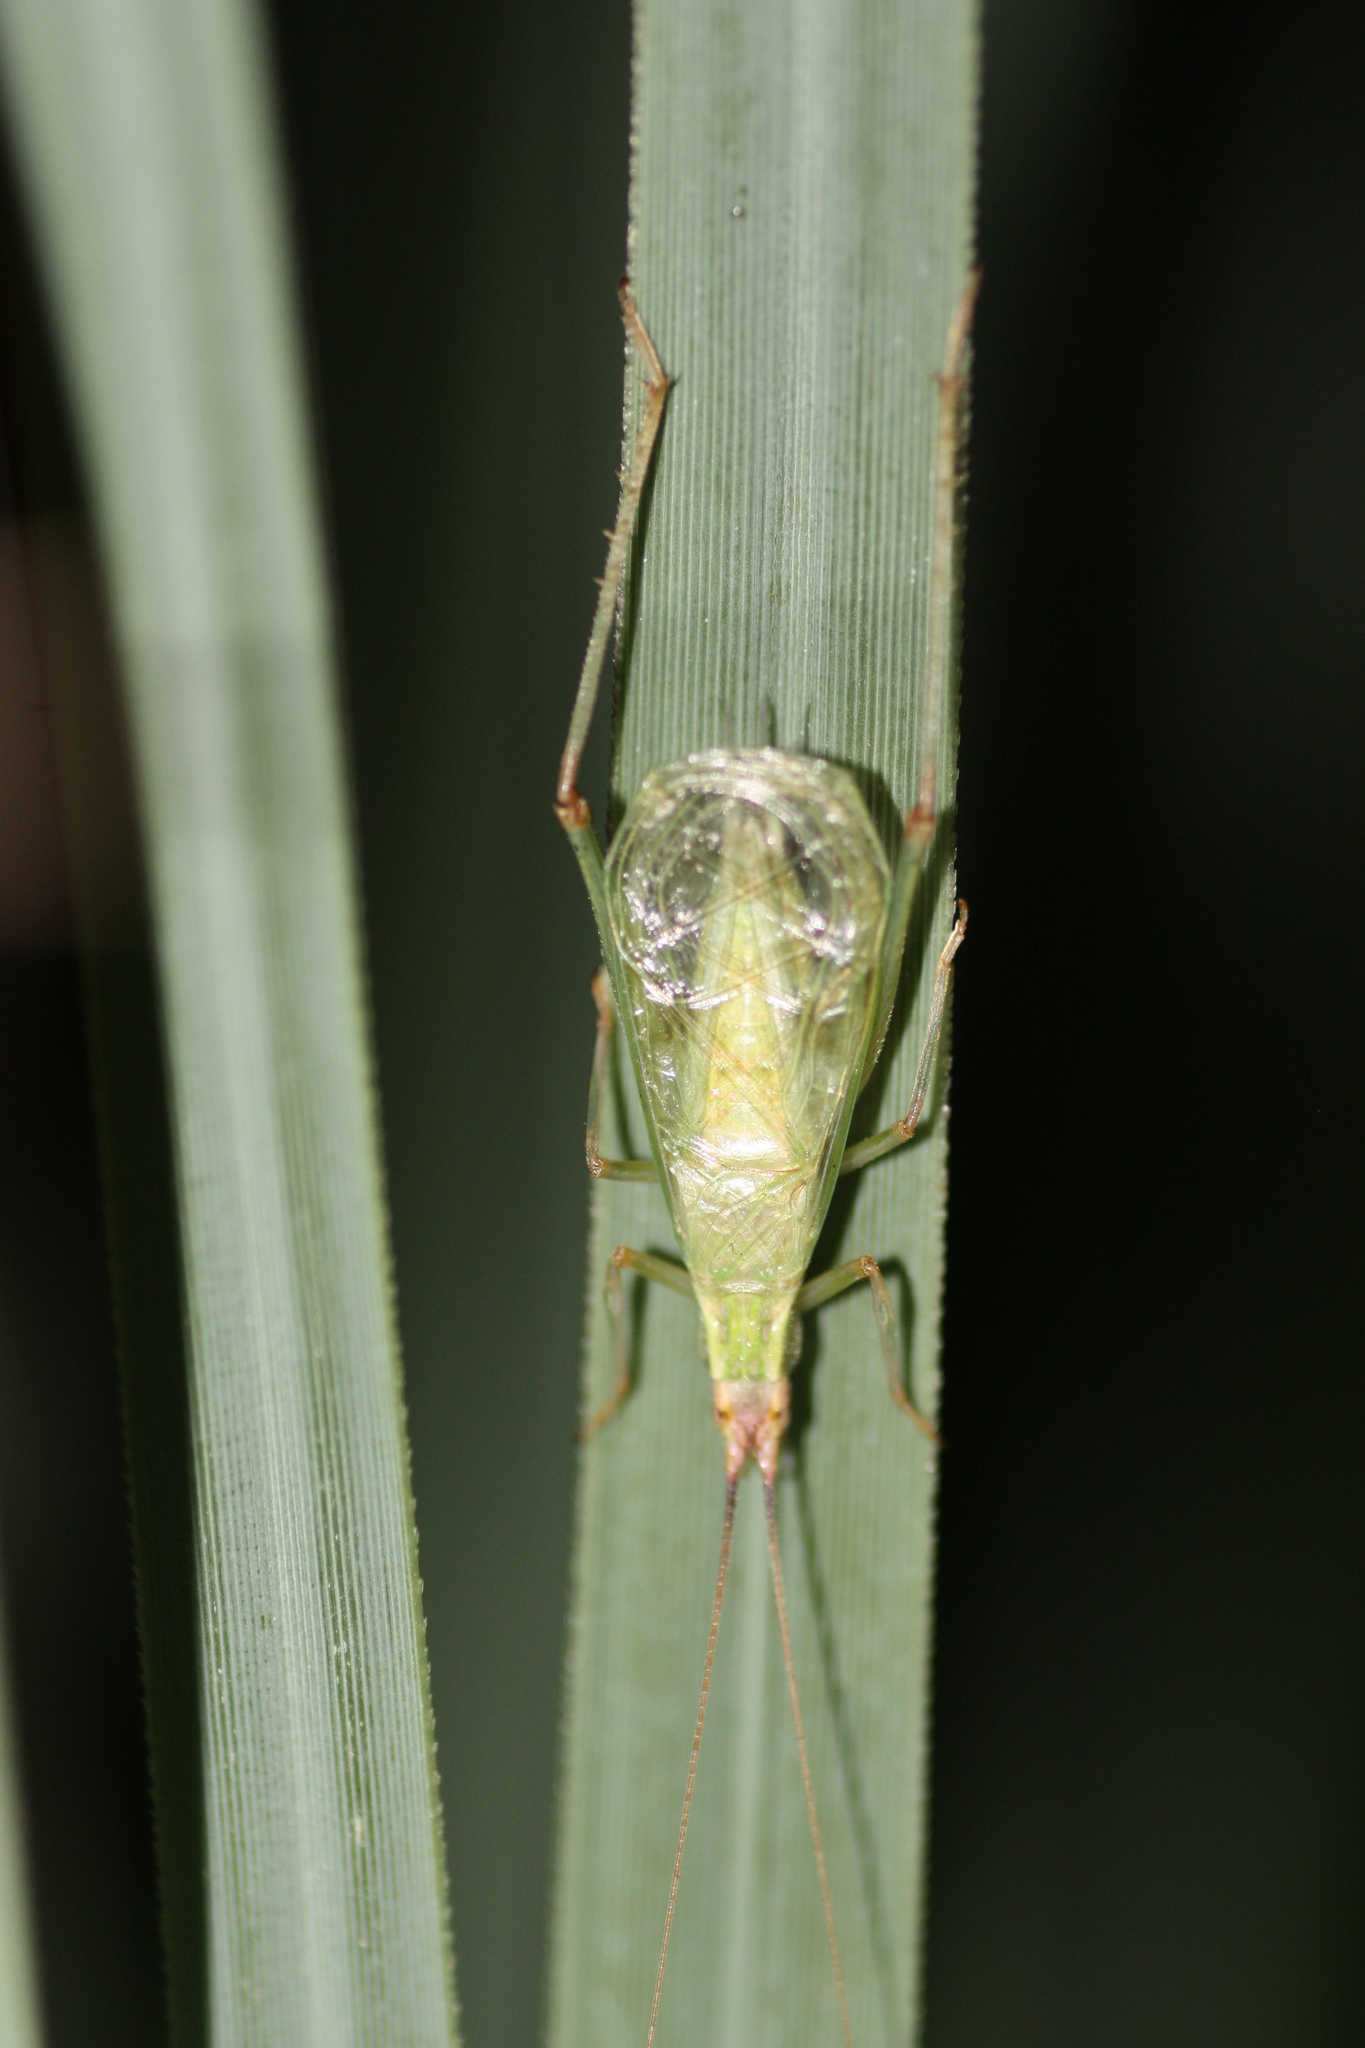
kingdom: Animalia
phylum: Arthropoda
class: Insecta
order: Orthoptera
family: Gryllidae
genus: Oecanthus
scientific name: Oecanthus californicus
